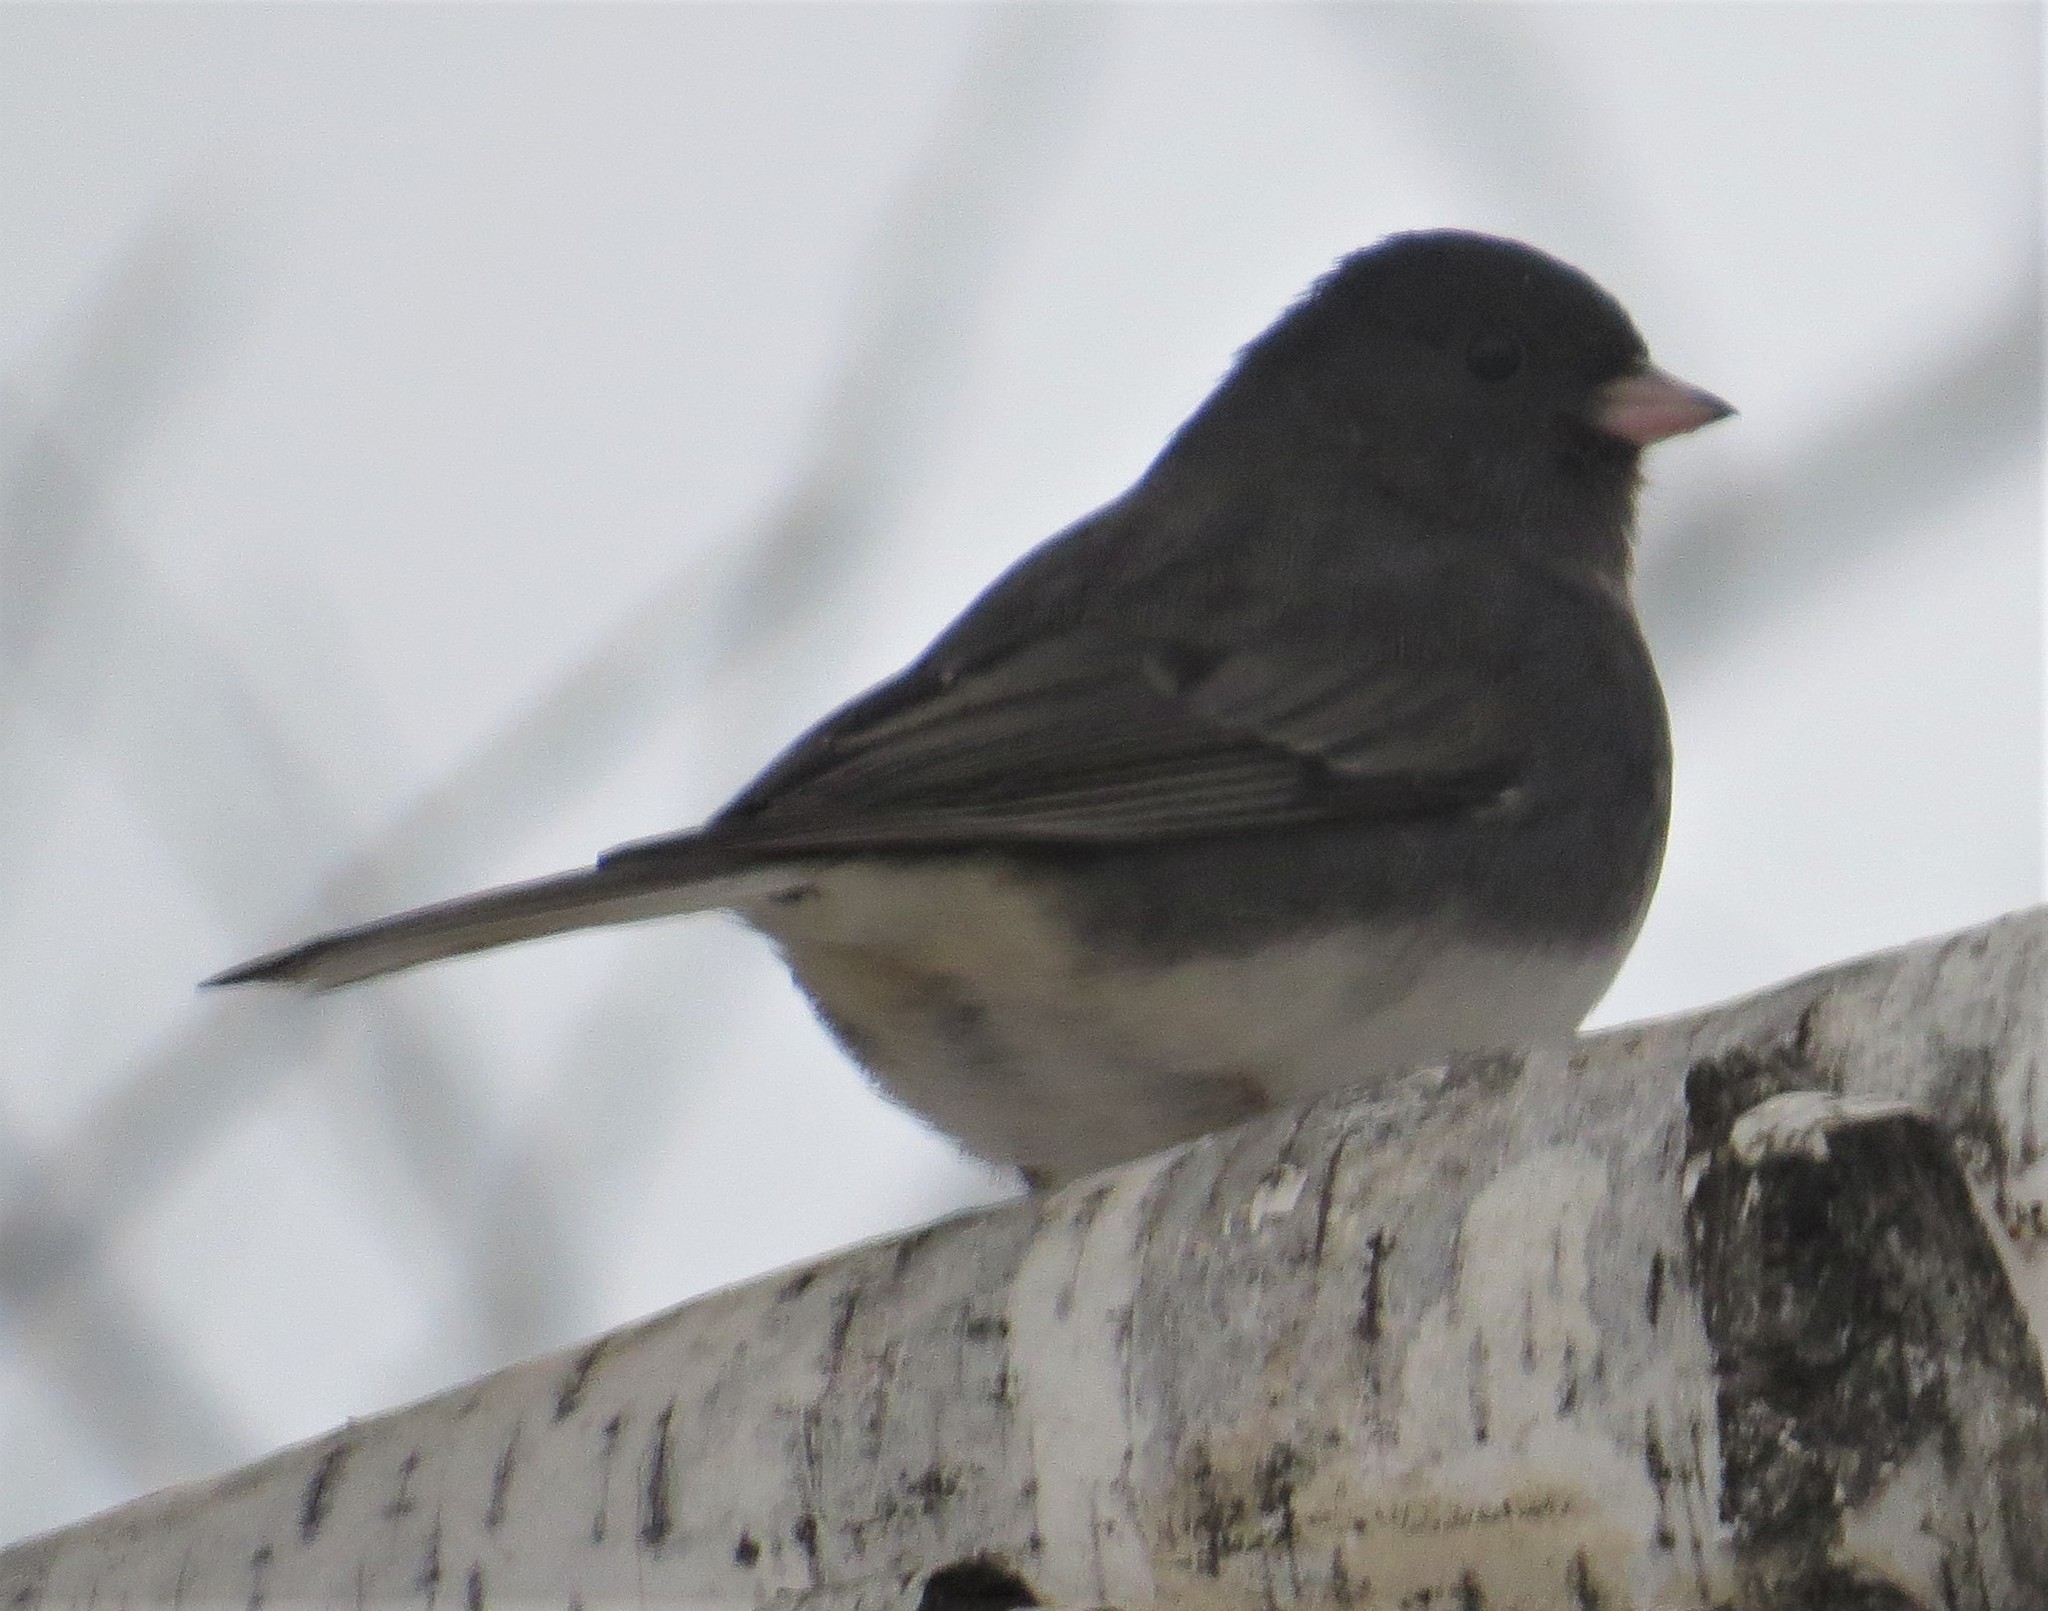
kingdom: Animalia
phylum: Chordata
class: Aves
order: Passeriformes
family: Passerellidae
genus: Junco
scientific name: Junco hyemalis
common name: Dark-eyed junco
